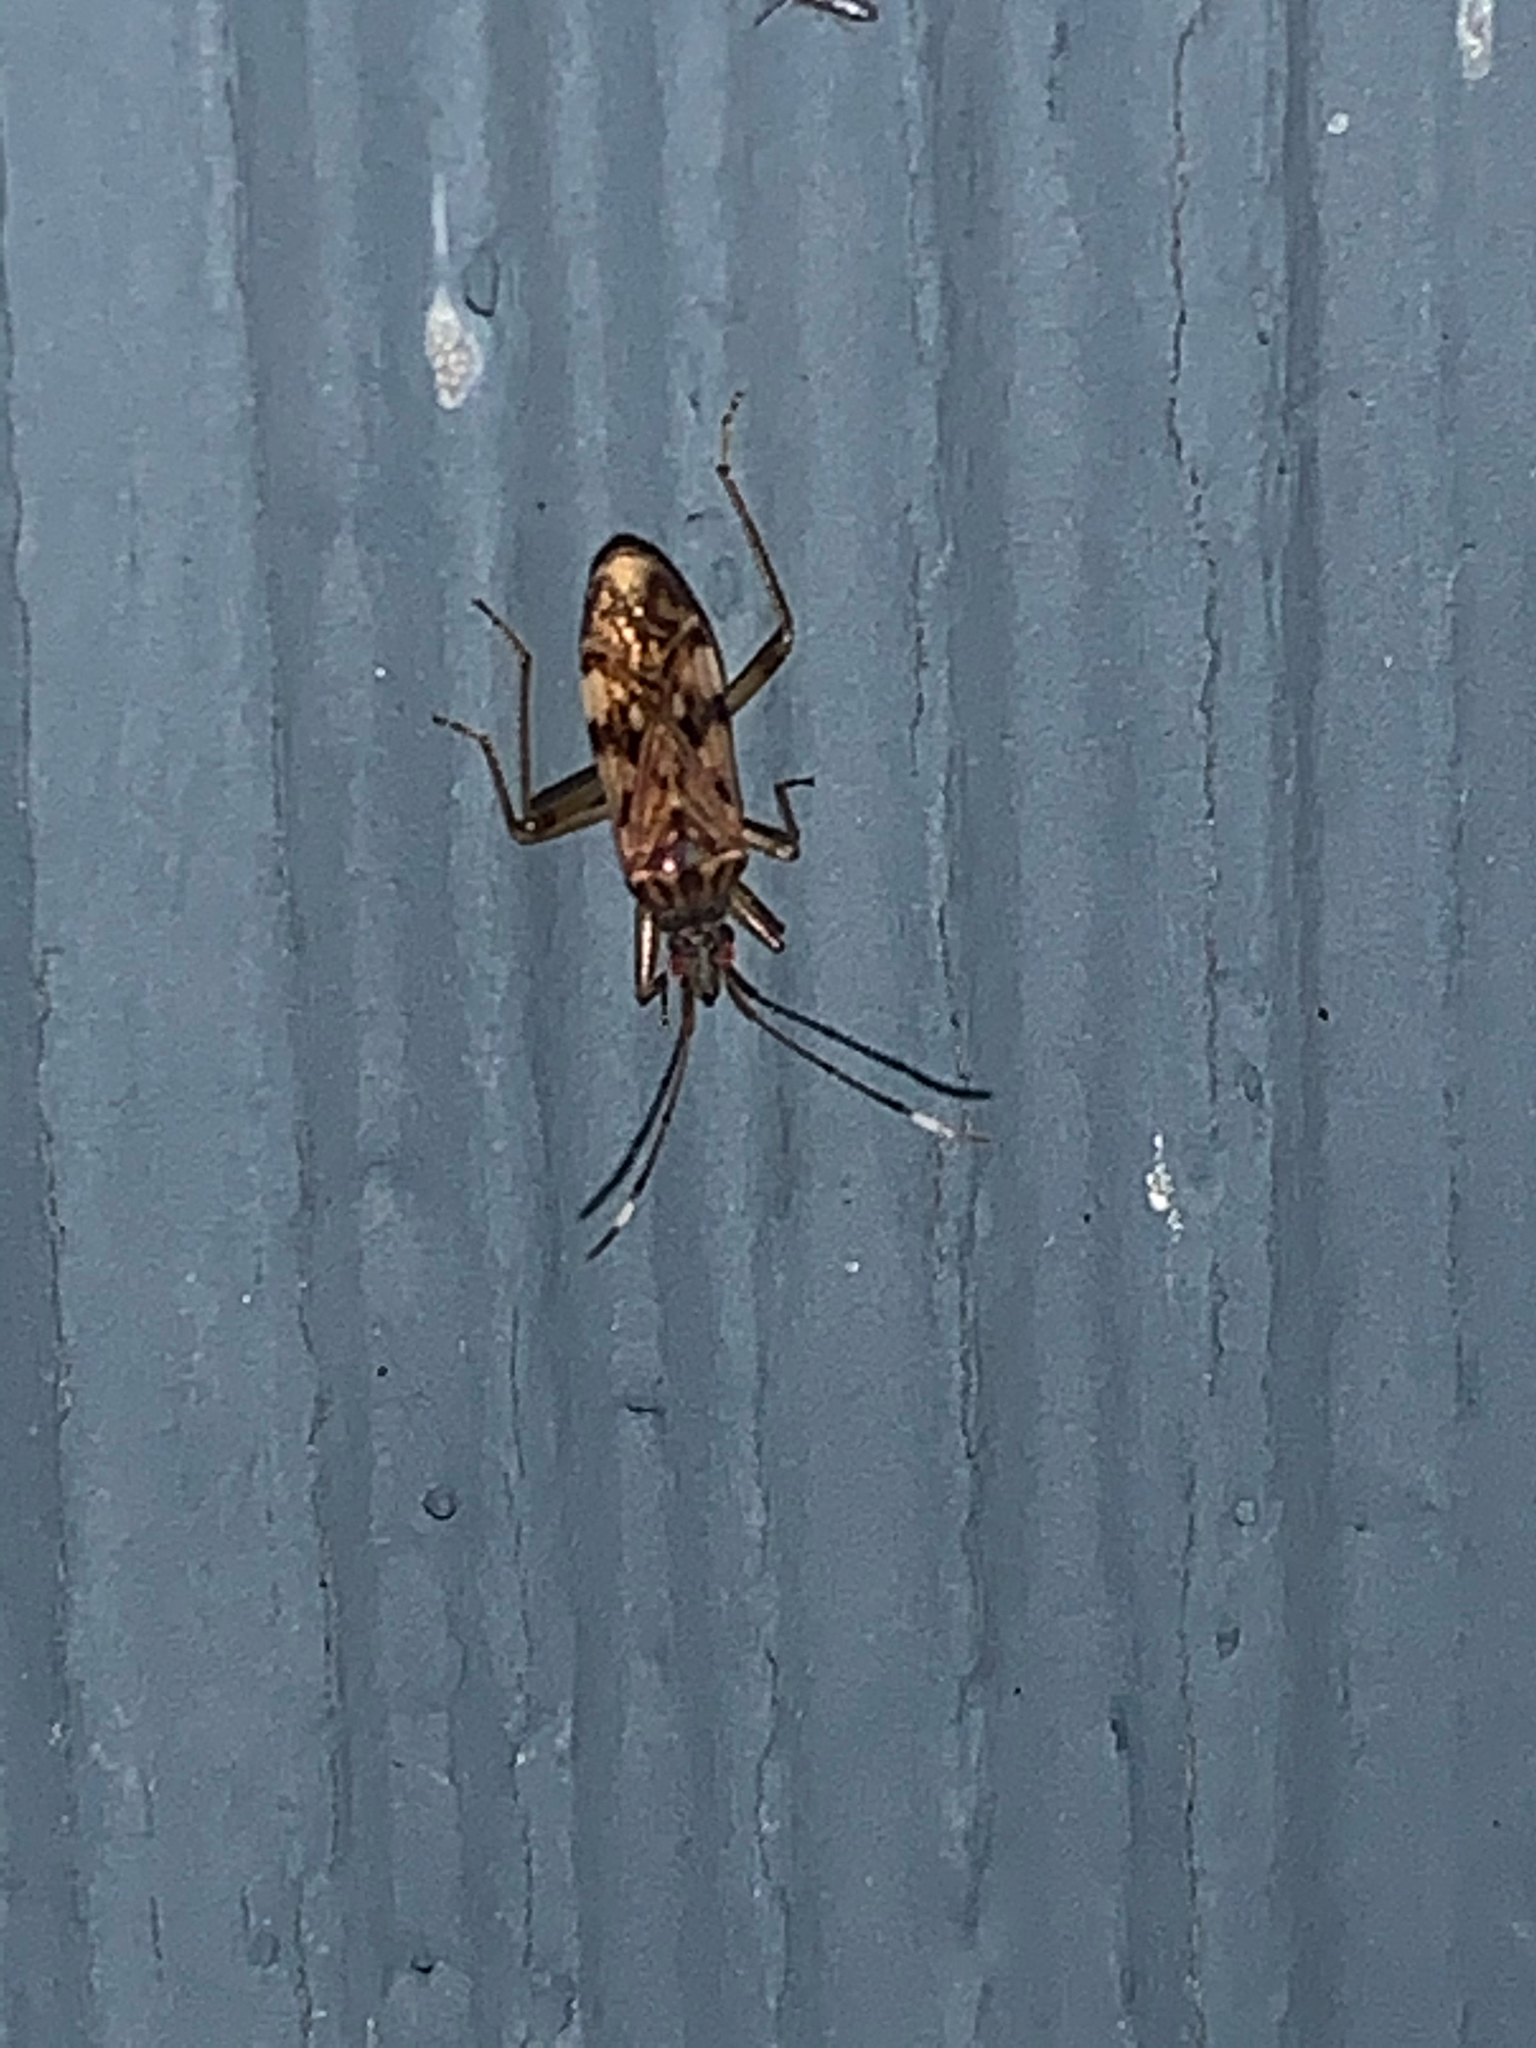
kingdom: Animalia
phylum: Arthropoda
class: Insecta
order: Hemiptera
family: Rhyparochromidae
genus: Ozophora
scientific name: Ozophora picturata
